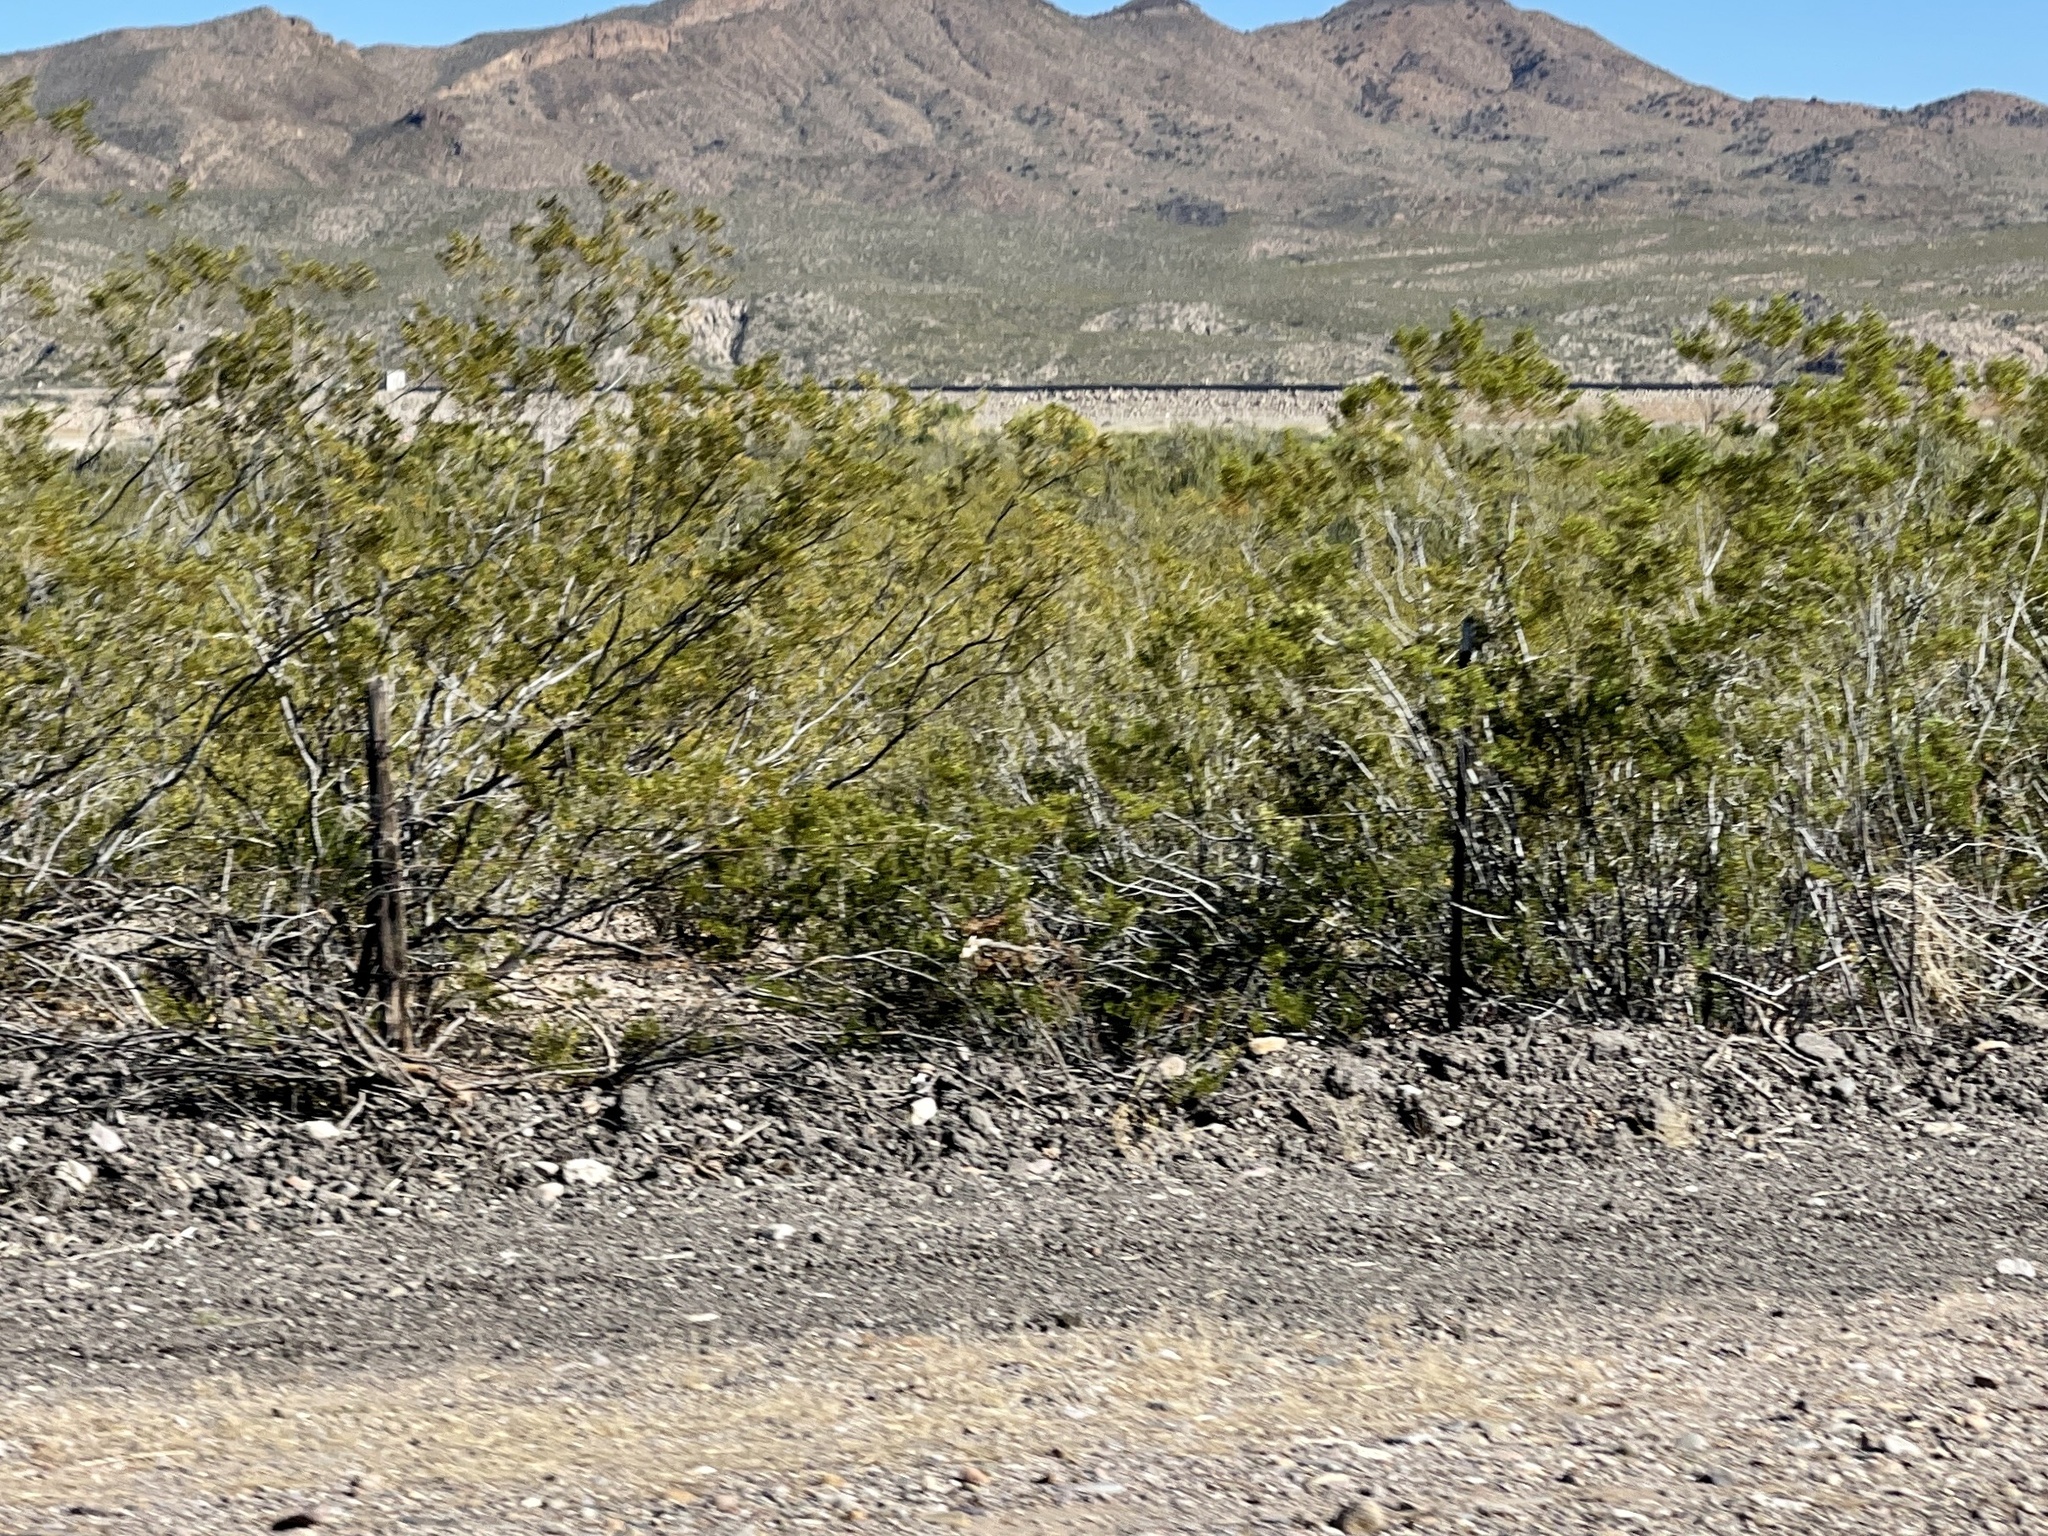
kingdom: Plantae
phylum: Tracheophyta
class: Magnoliopsida
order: Zygophyllales
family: Zygophyllaceae
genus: Larrea
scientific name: Larrea tridentata
